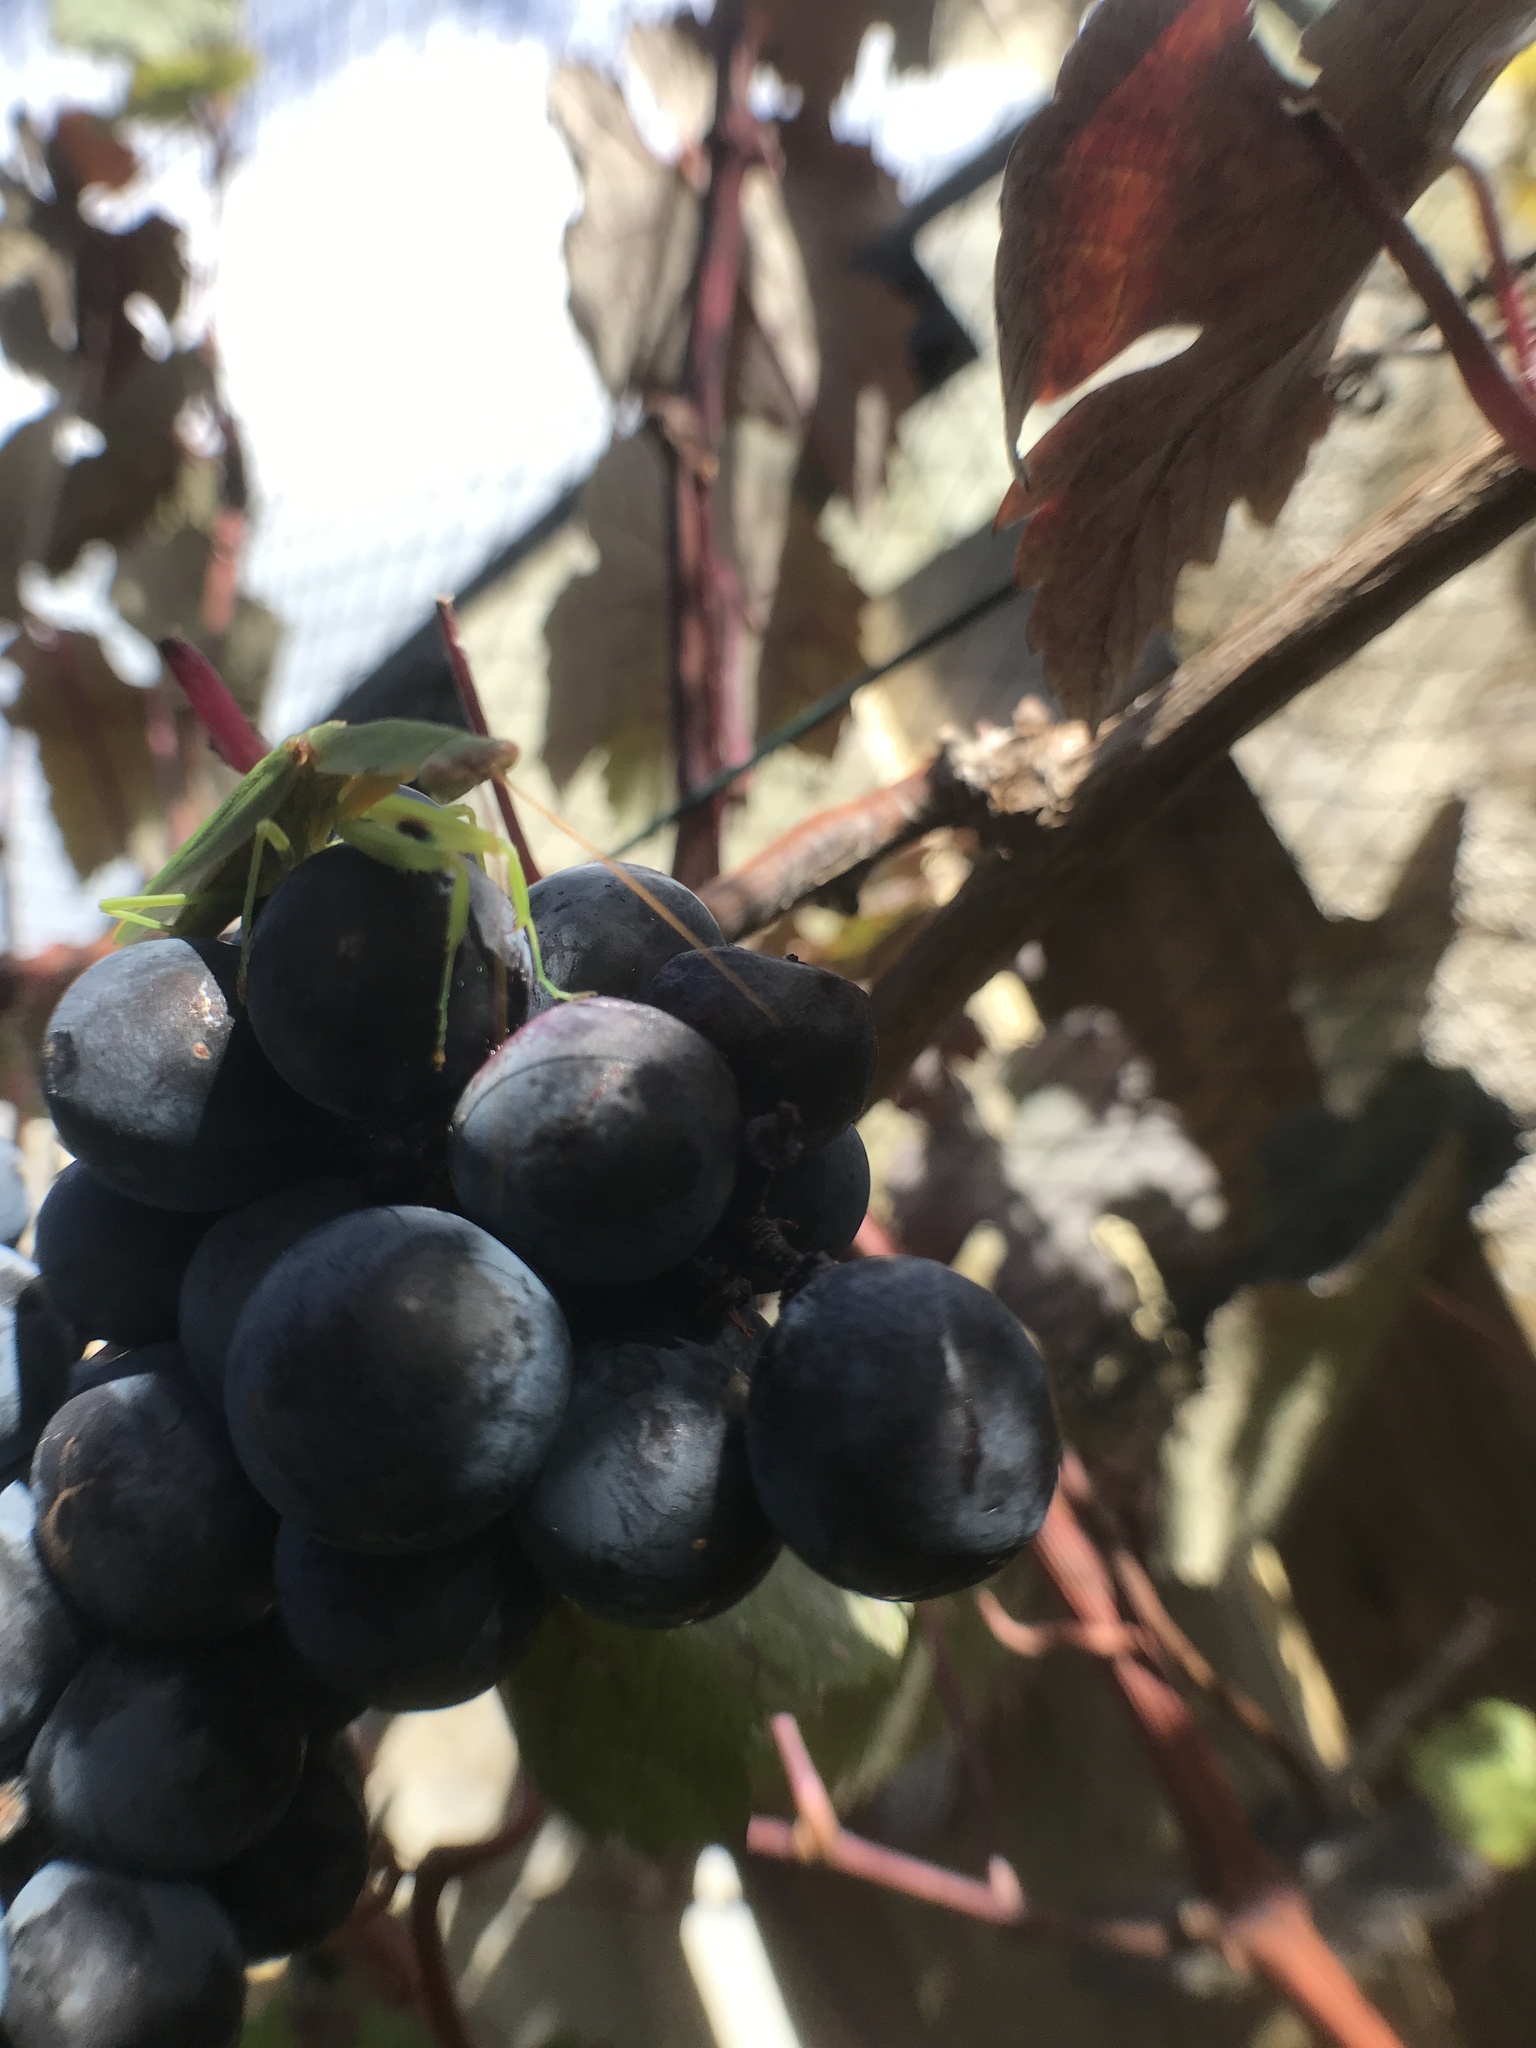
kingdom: Animalia
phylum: Arthropoda
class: Insecta
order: Mantodea
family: Mantidae
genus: Orthodera
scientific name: Orthodera novaezealandiae
